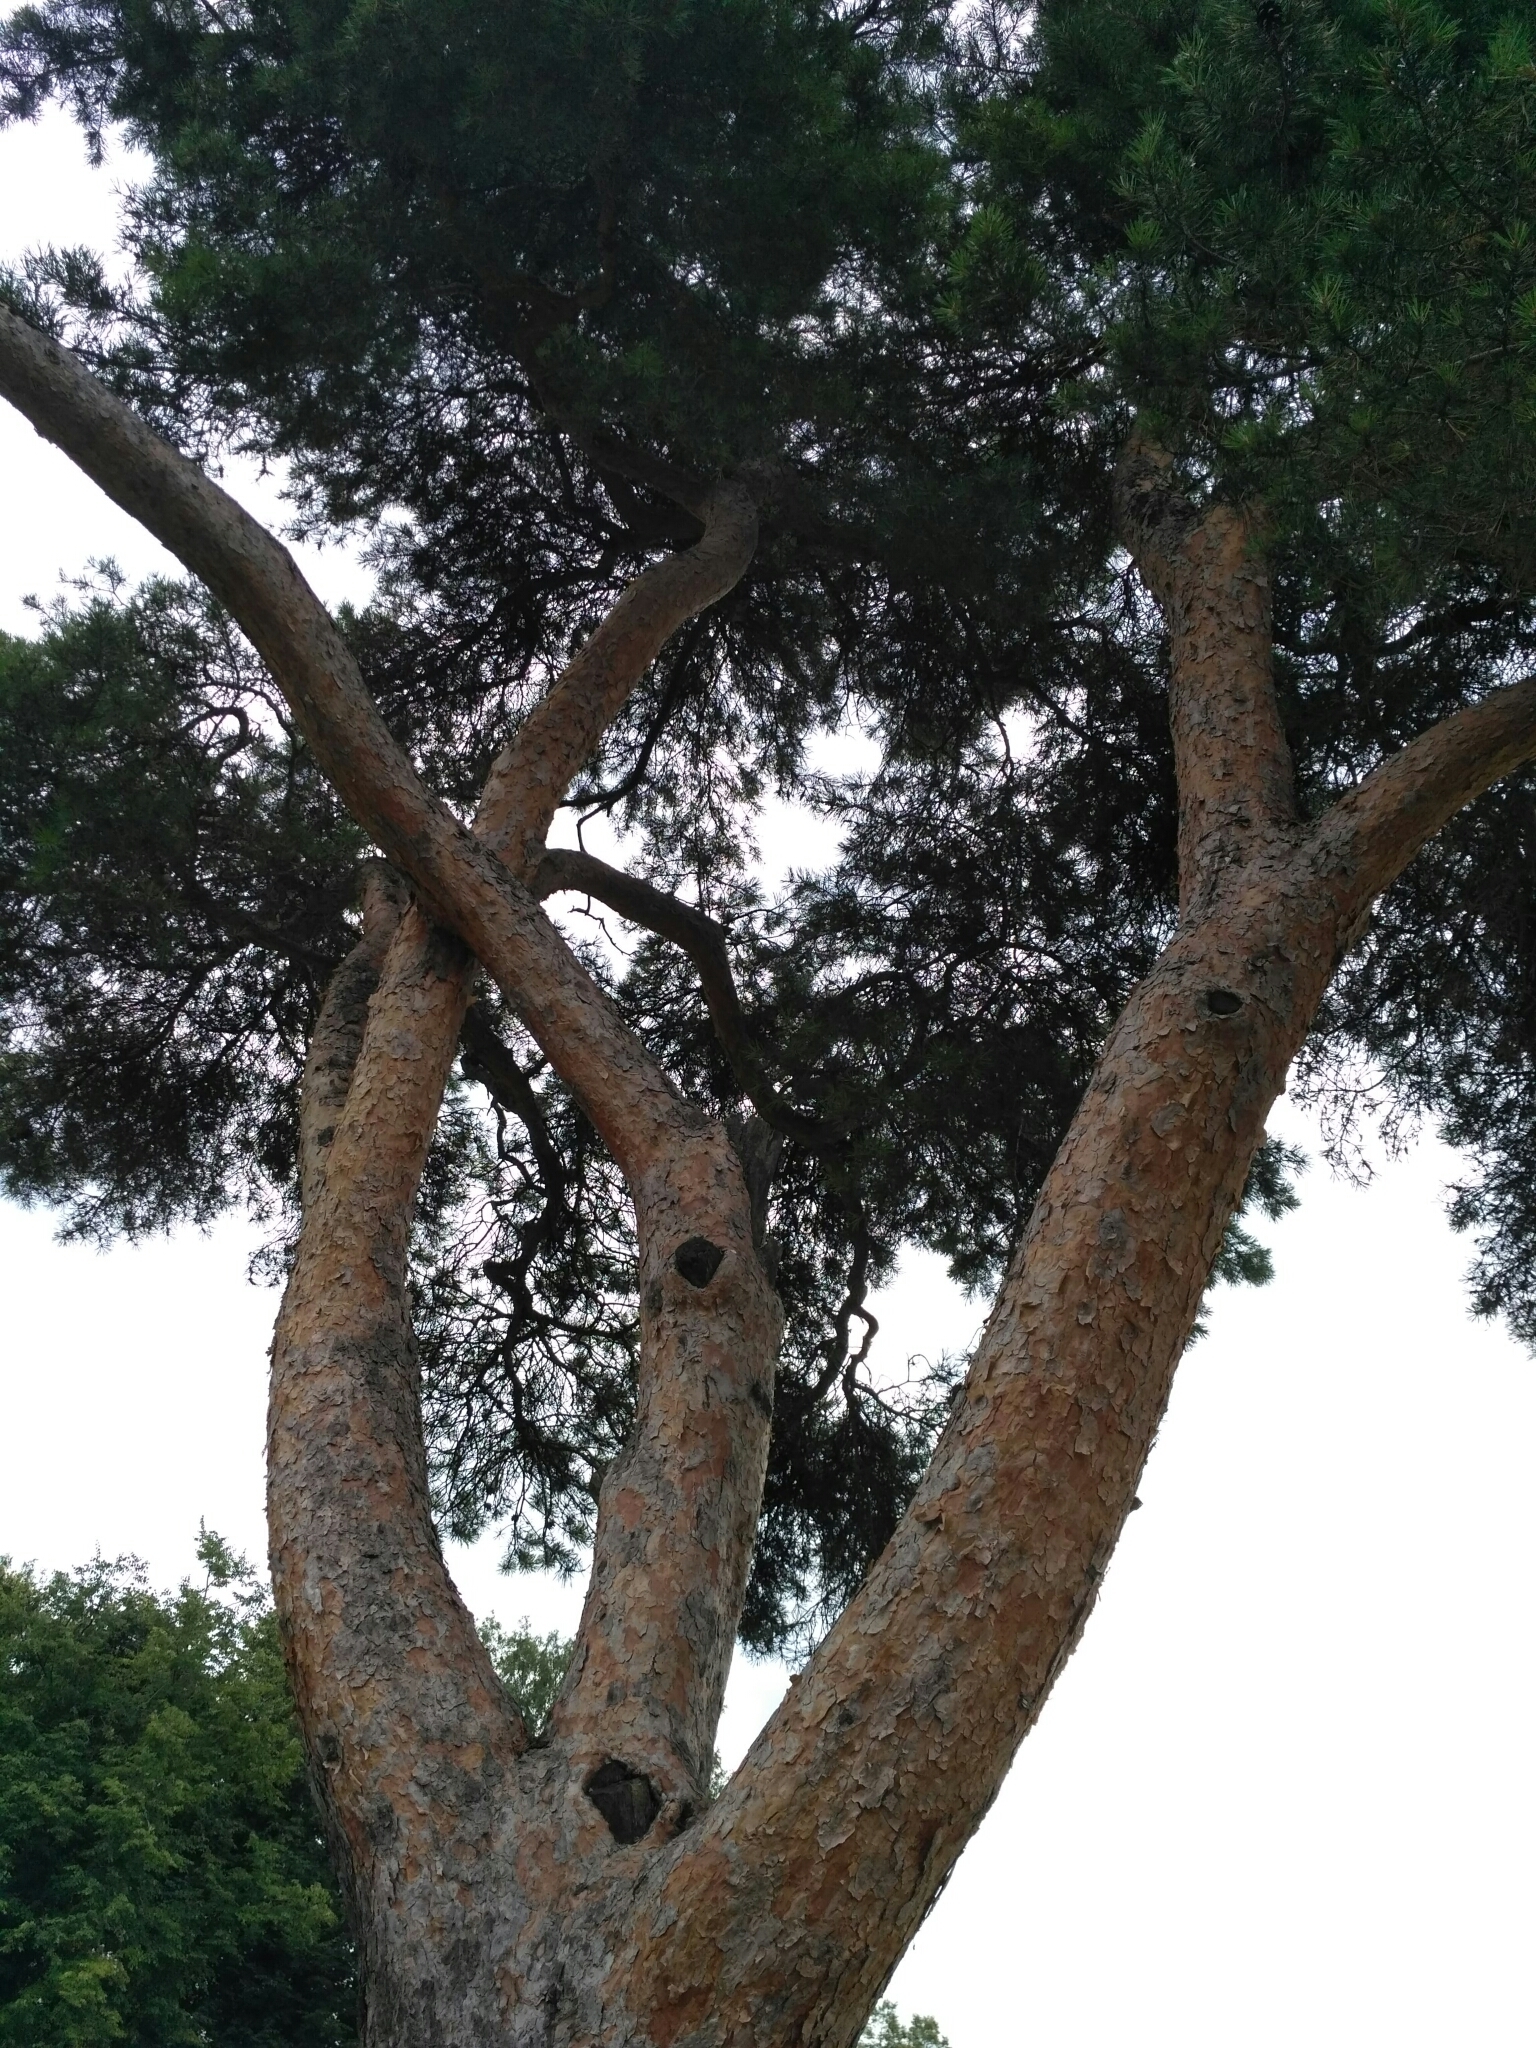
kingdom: Plantae
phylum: Tracheophyta
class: Pinopsida
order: Pinales
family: Pinaceae
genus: Pinus
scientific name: Pinus sylvestris
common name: Scots pine
